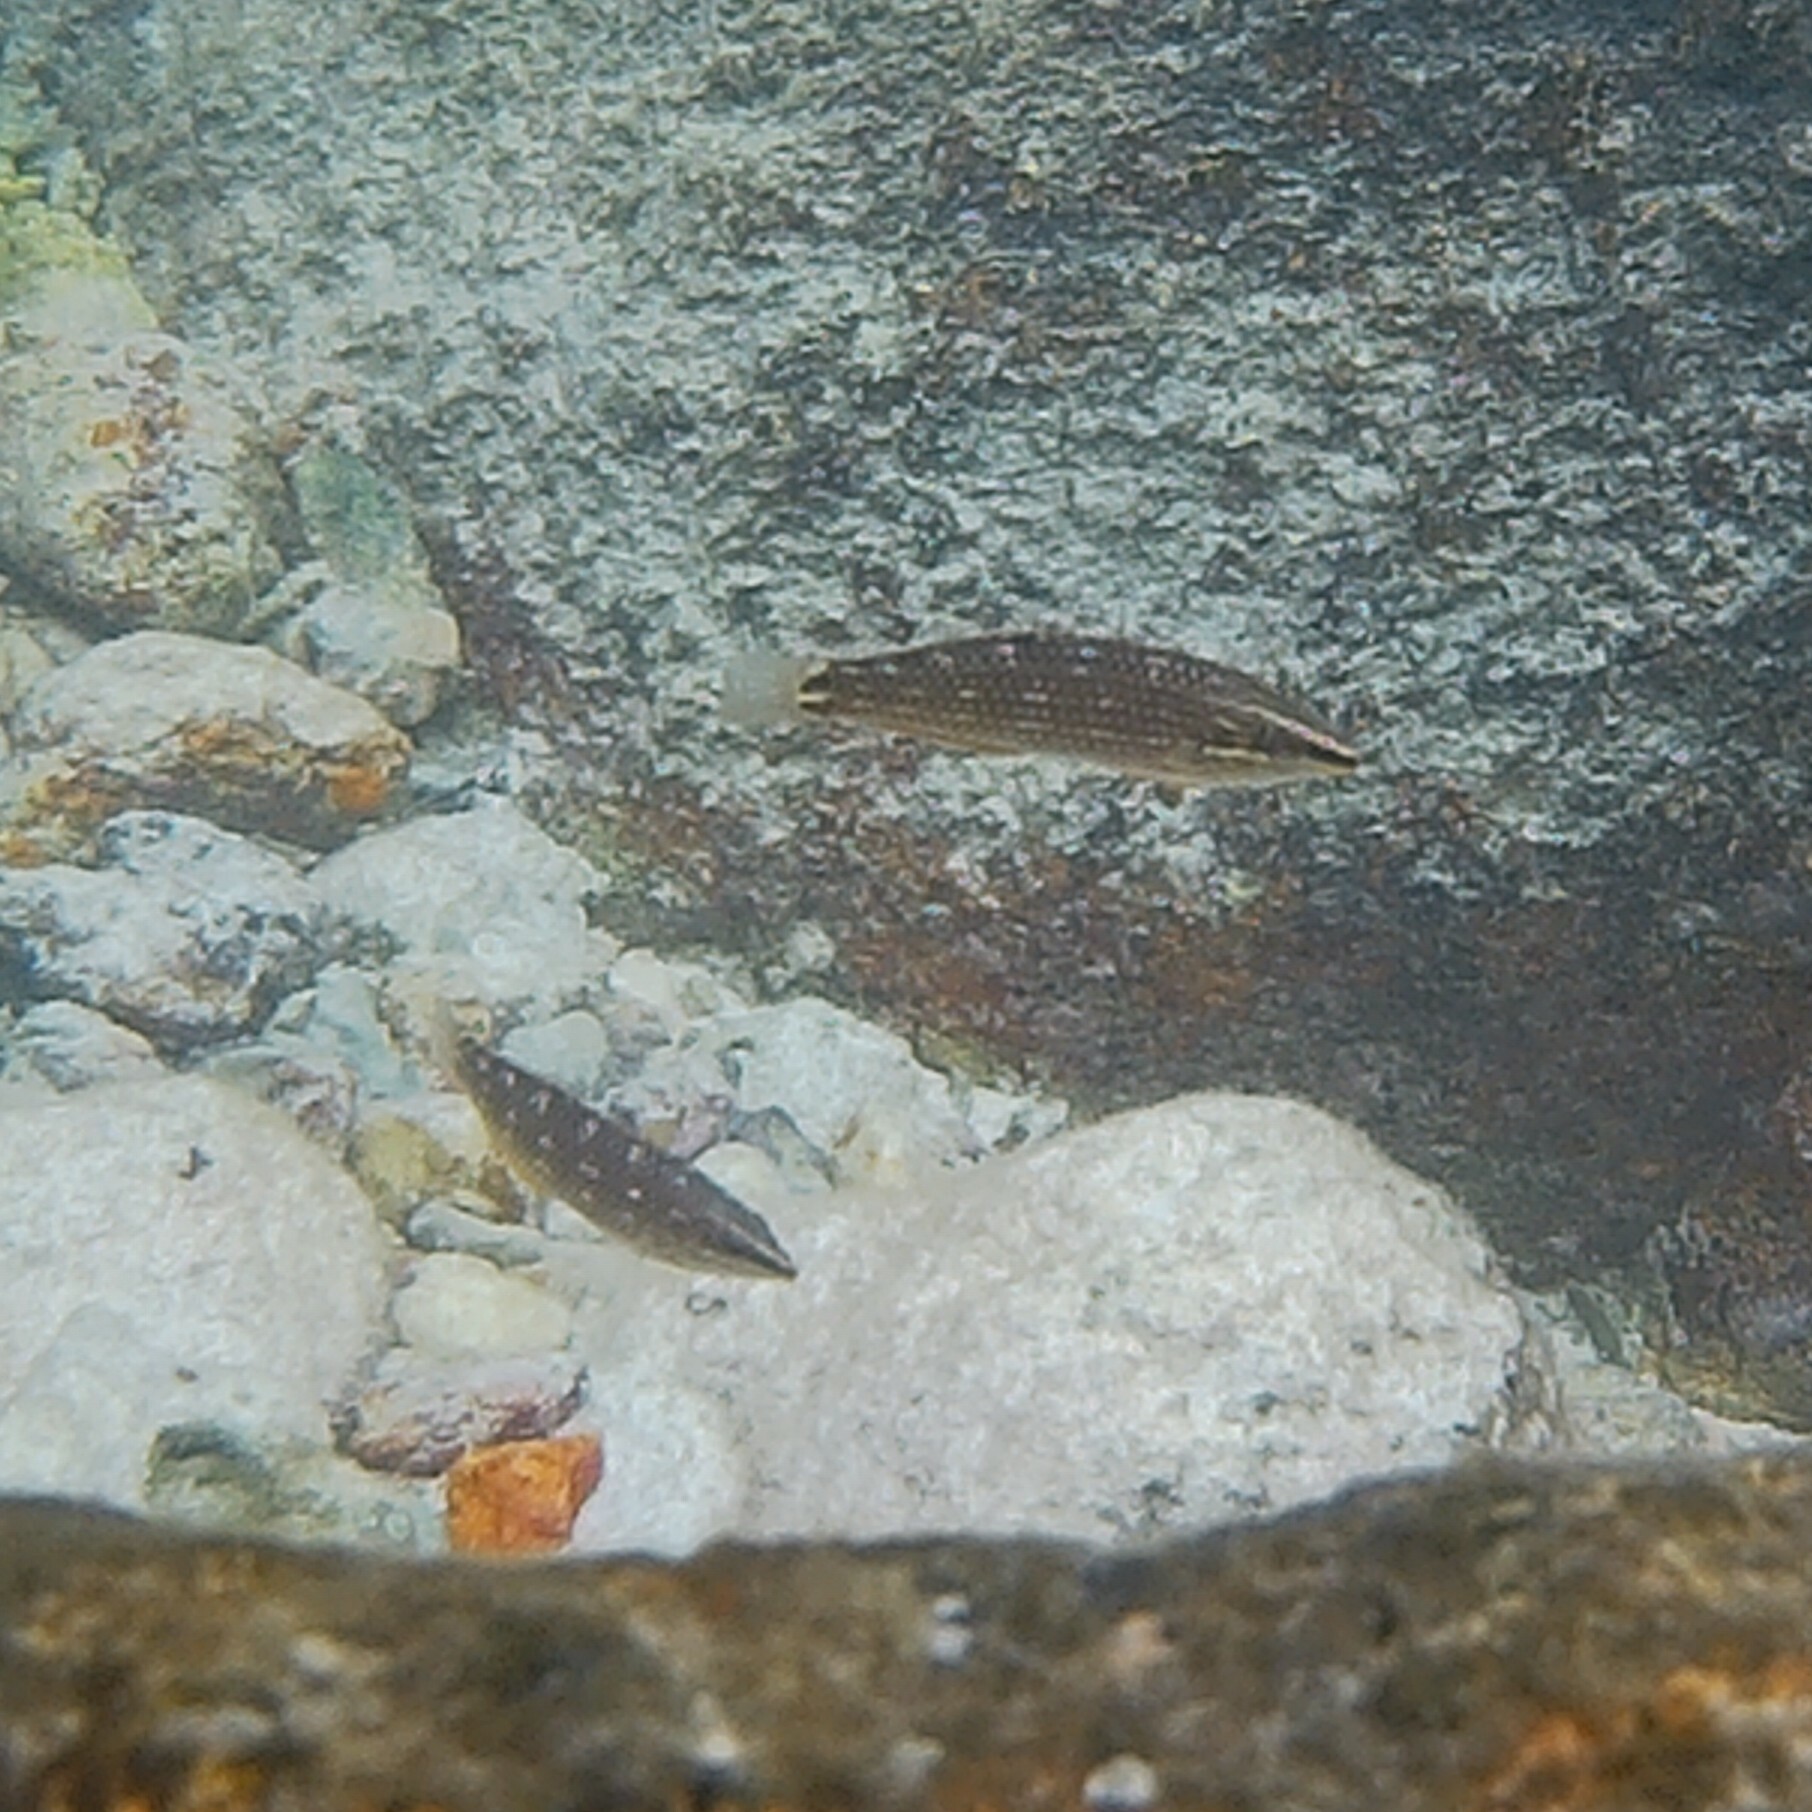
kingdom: Animalia
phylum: Chordata
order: Perciformes
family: Labridae
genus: Halichoeres
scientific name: Halichoeres argus
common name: Argus wrasse
